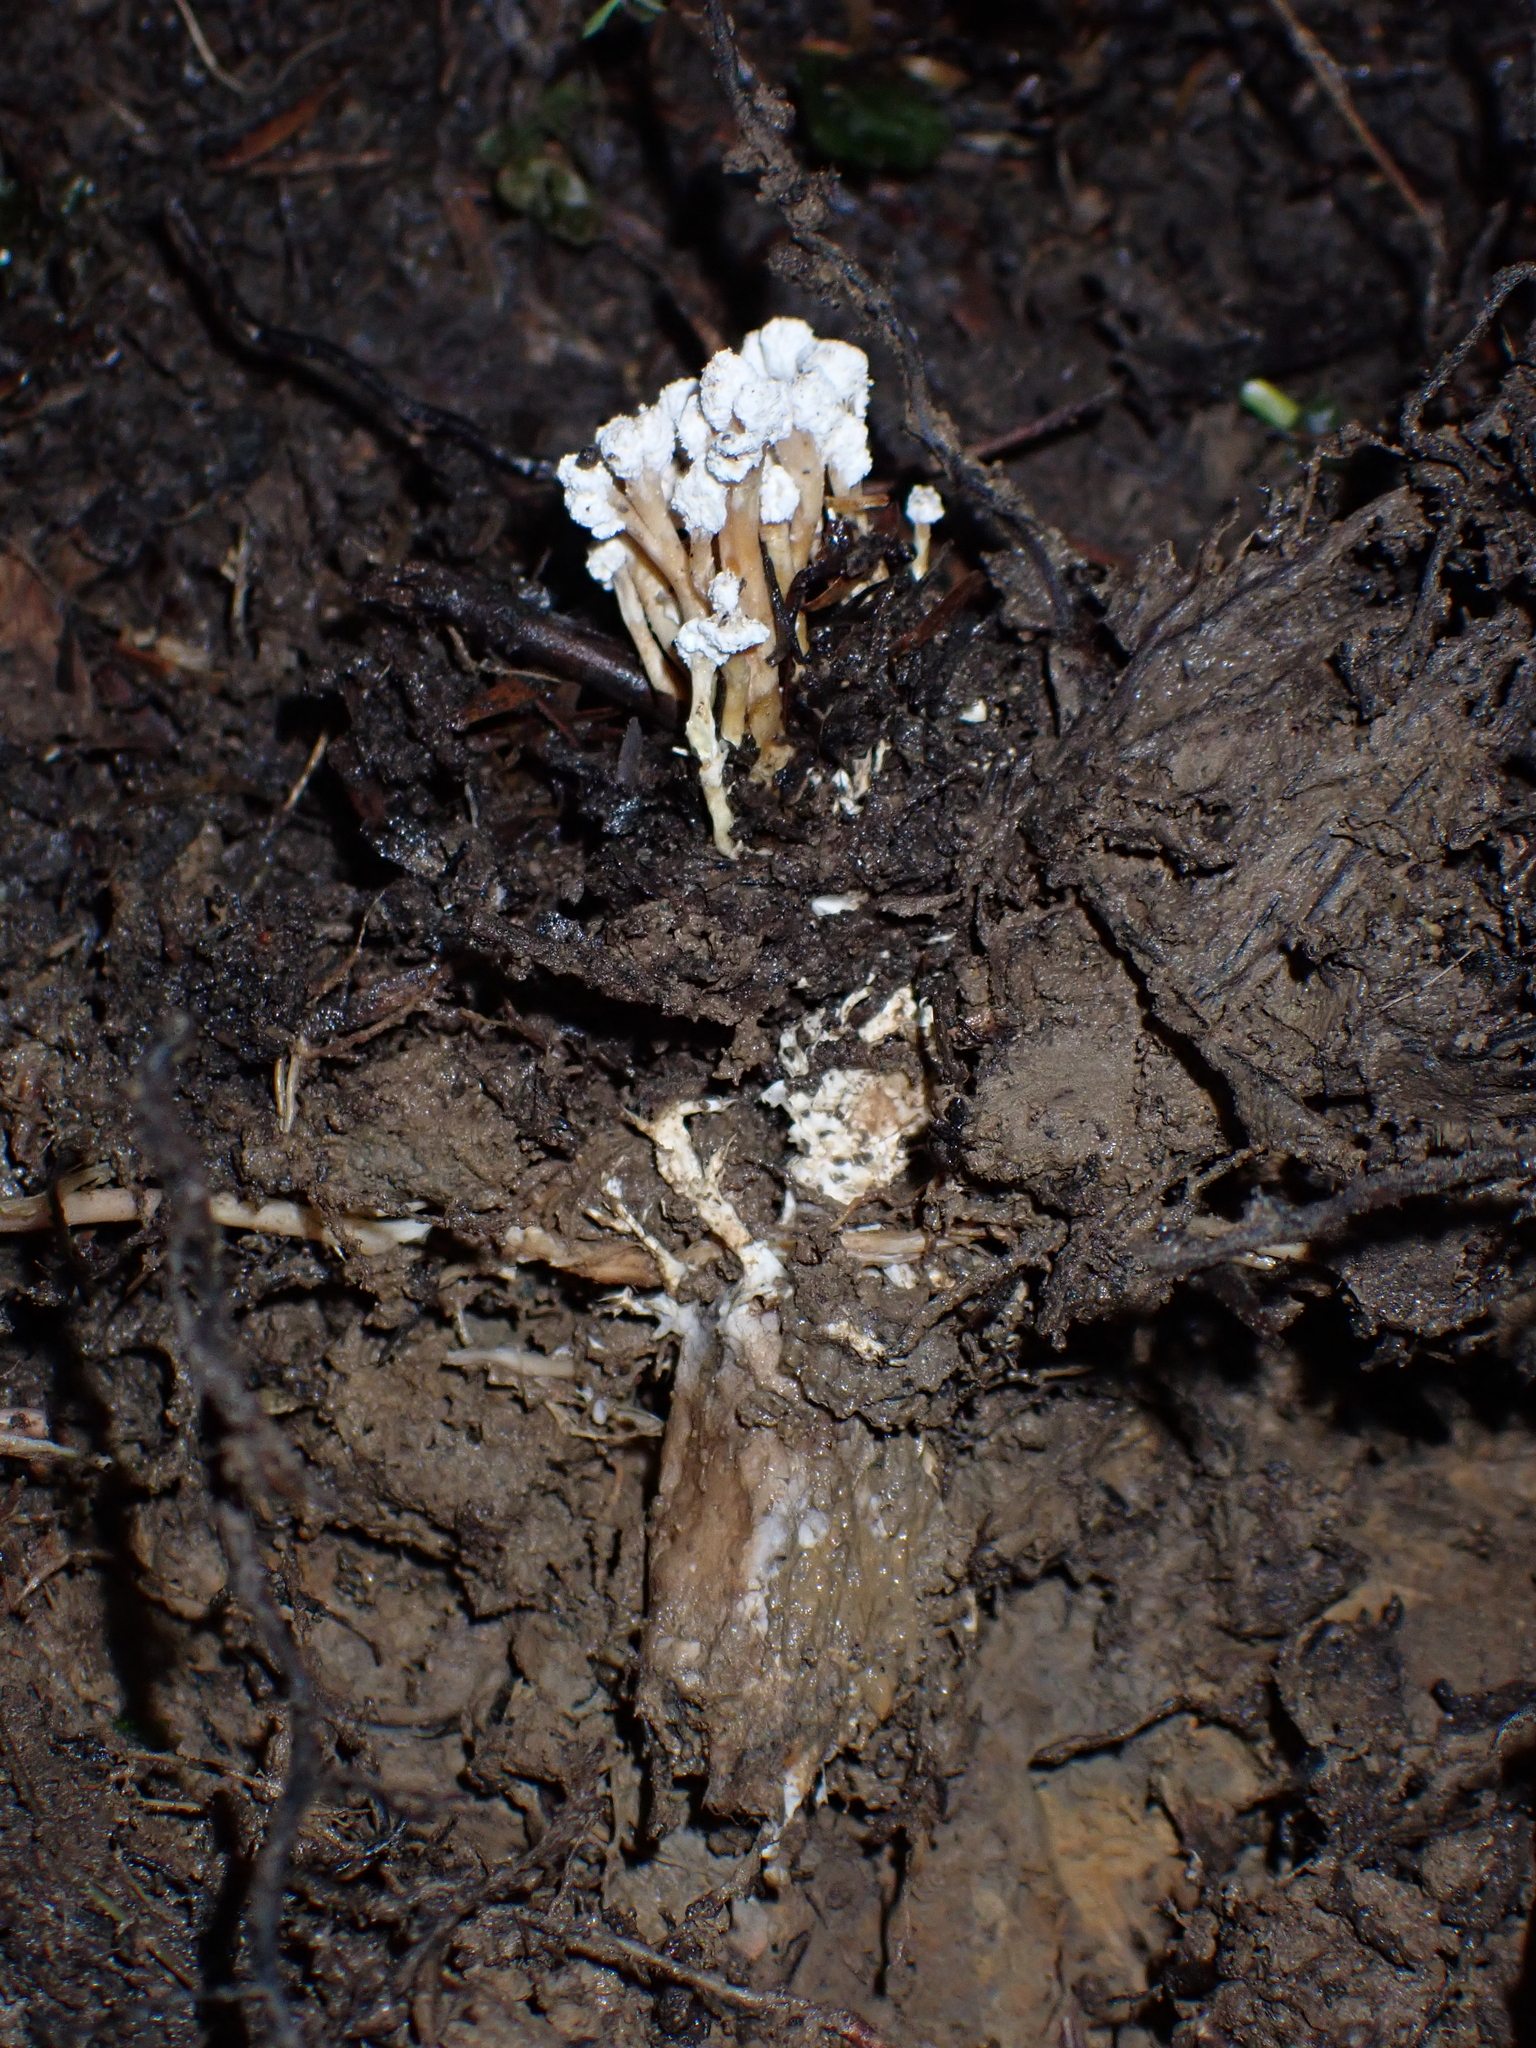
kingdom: Fungi
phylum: Ascomycota
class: Sordariomycetes
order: Hypocreales
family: Cordycipitaceae
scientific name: Cordycipitaceae
